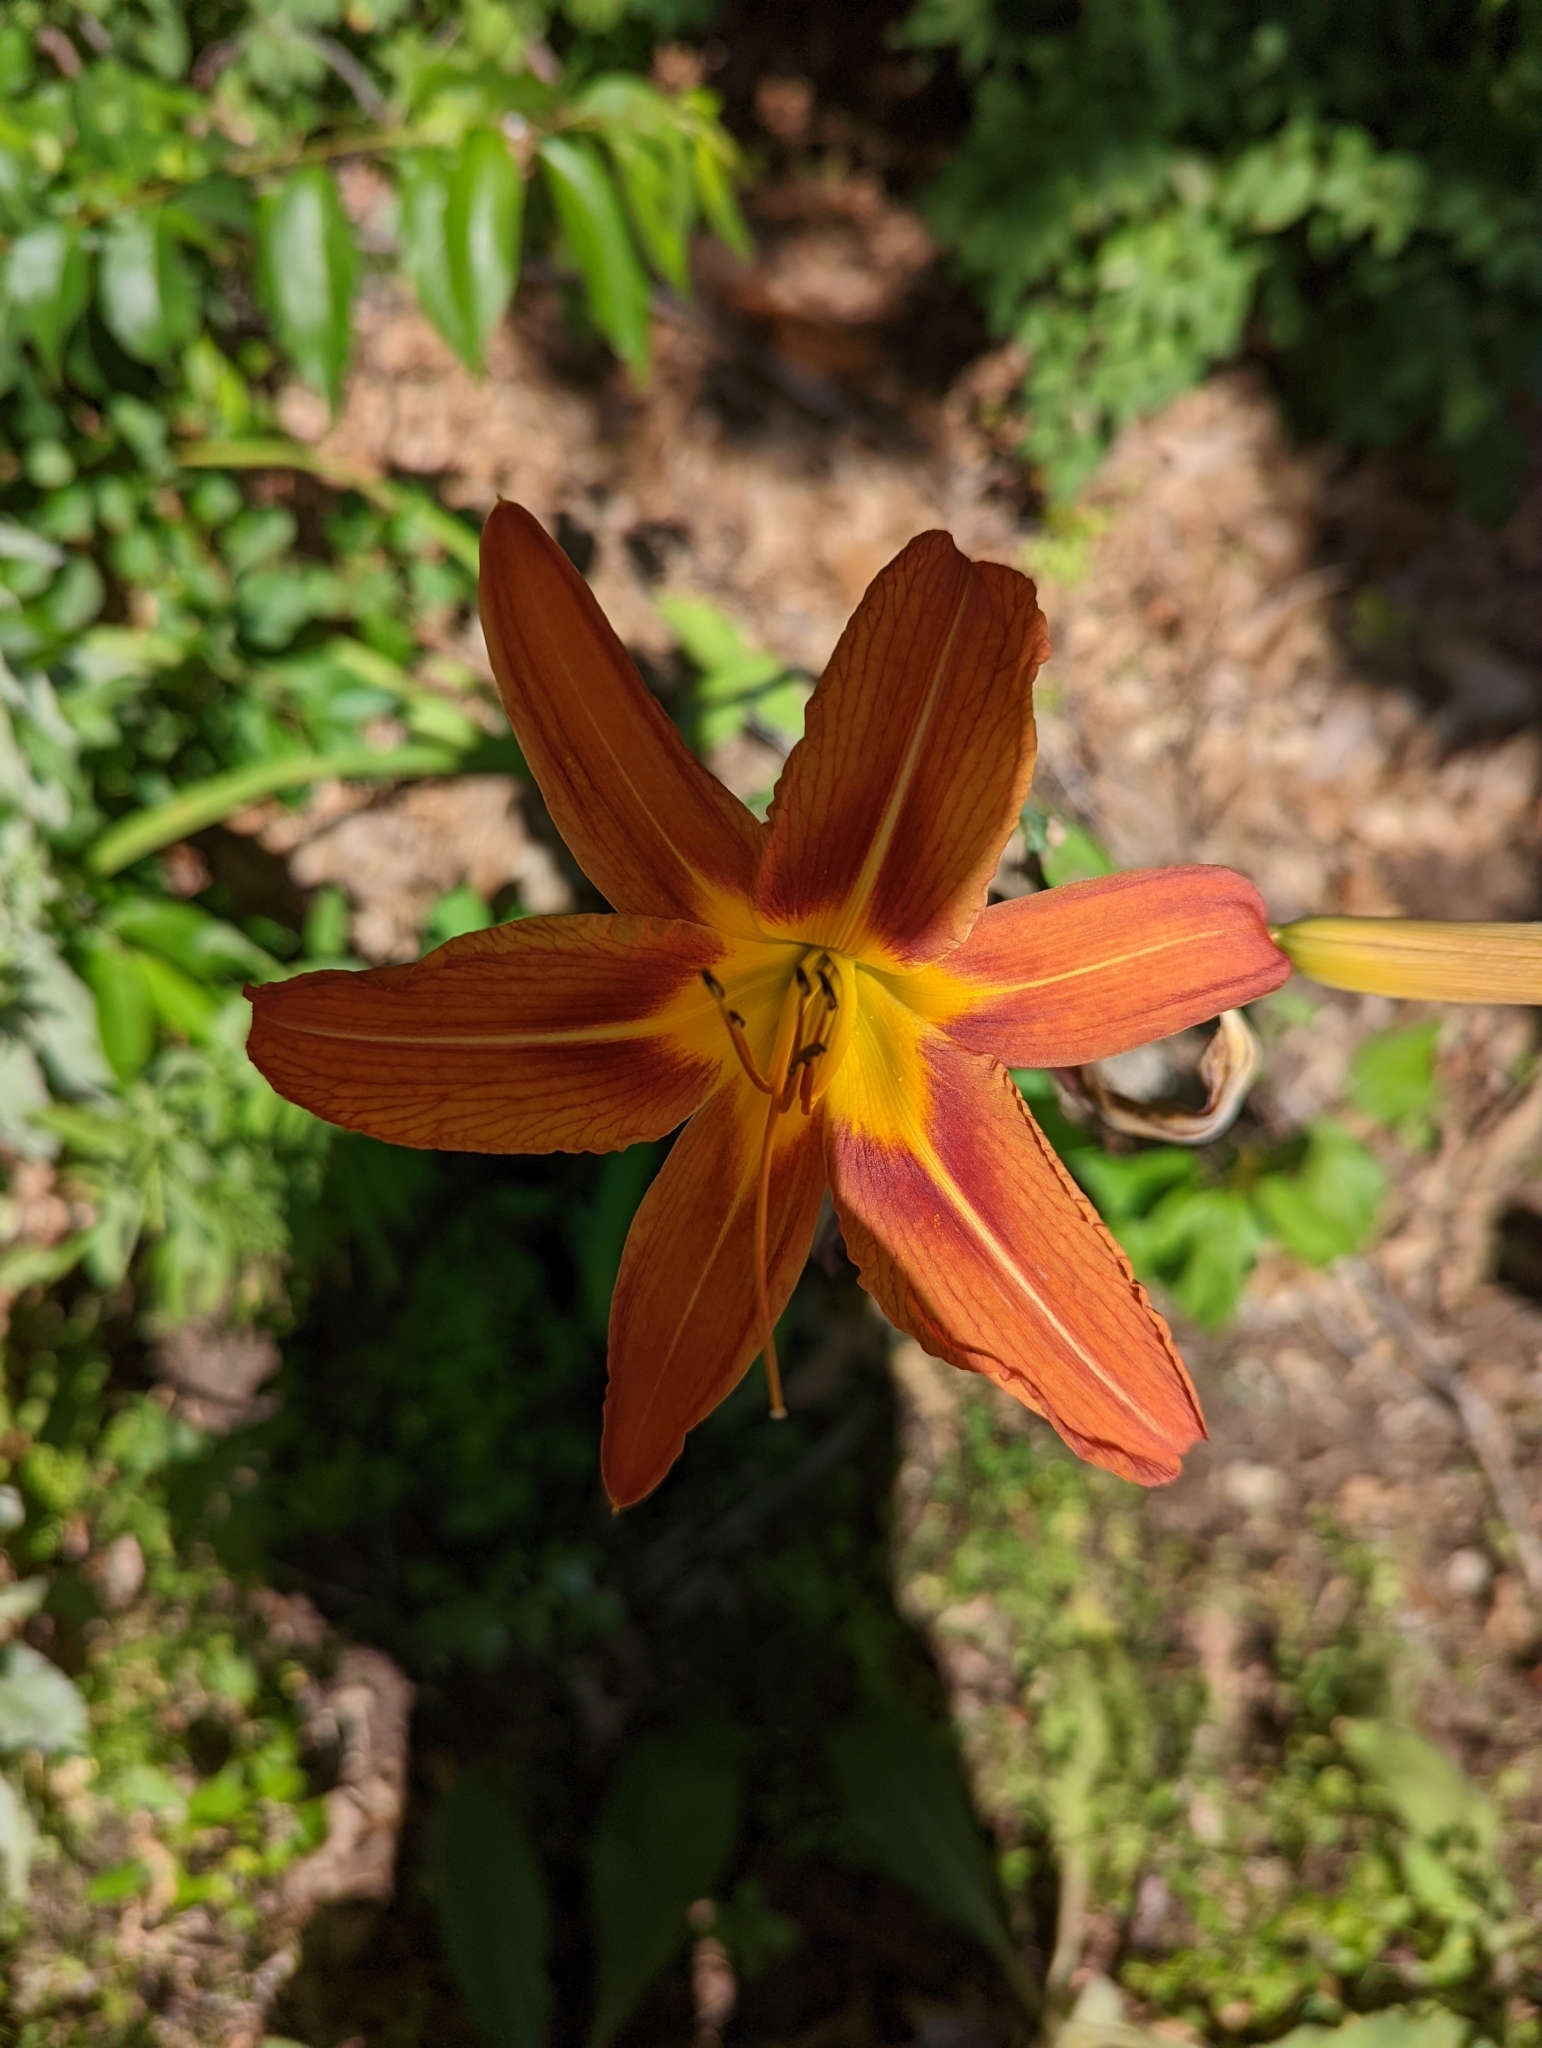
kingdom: Plantae
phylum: Tracheophyta
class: Liliopsida
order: Asparagales
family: Asphodelaceae
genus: Hemerocallis
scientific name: Hemerocallis fulva
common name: Orange day-lily
